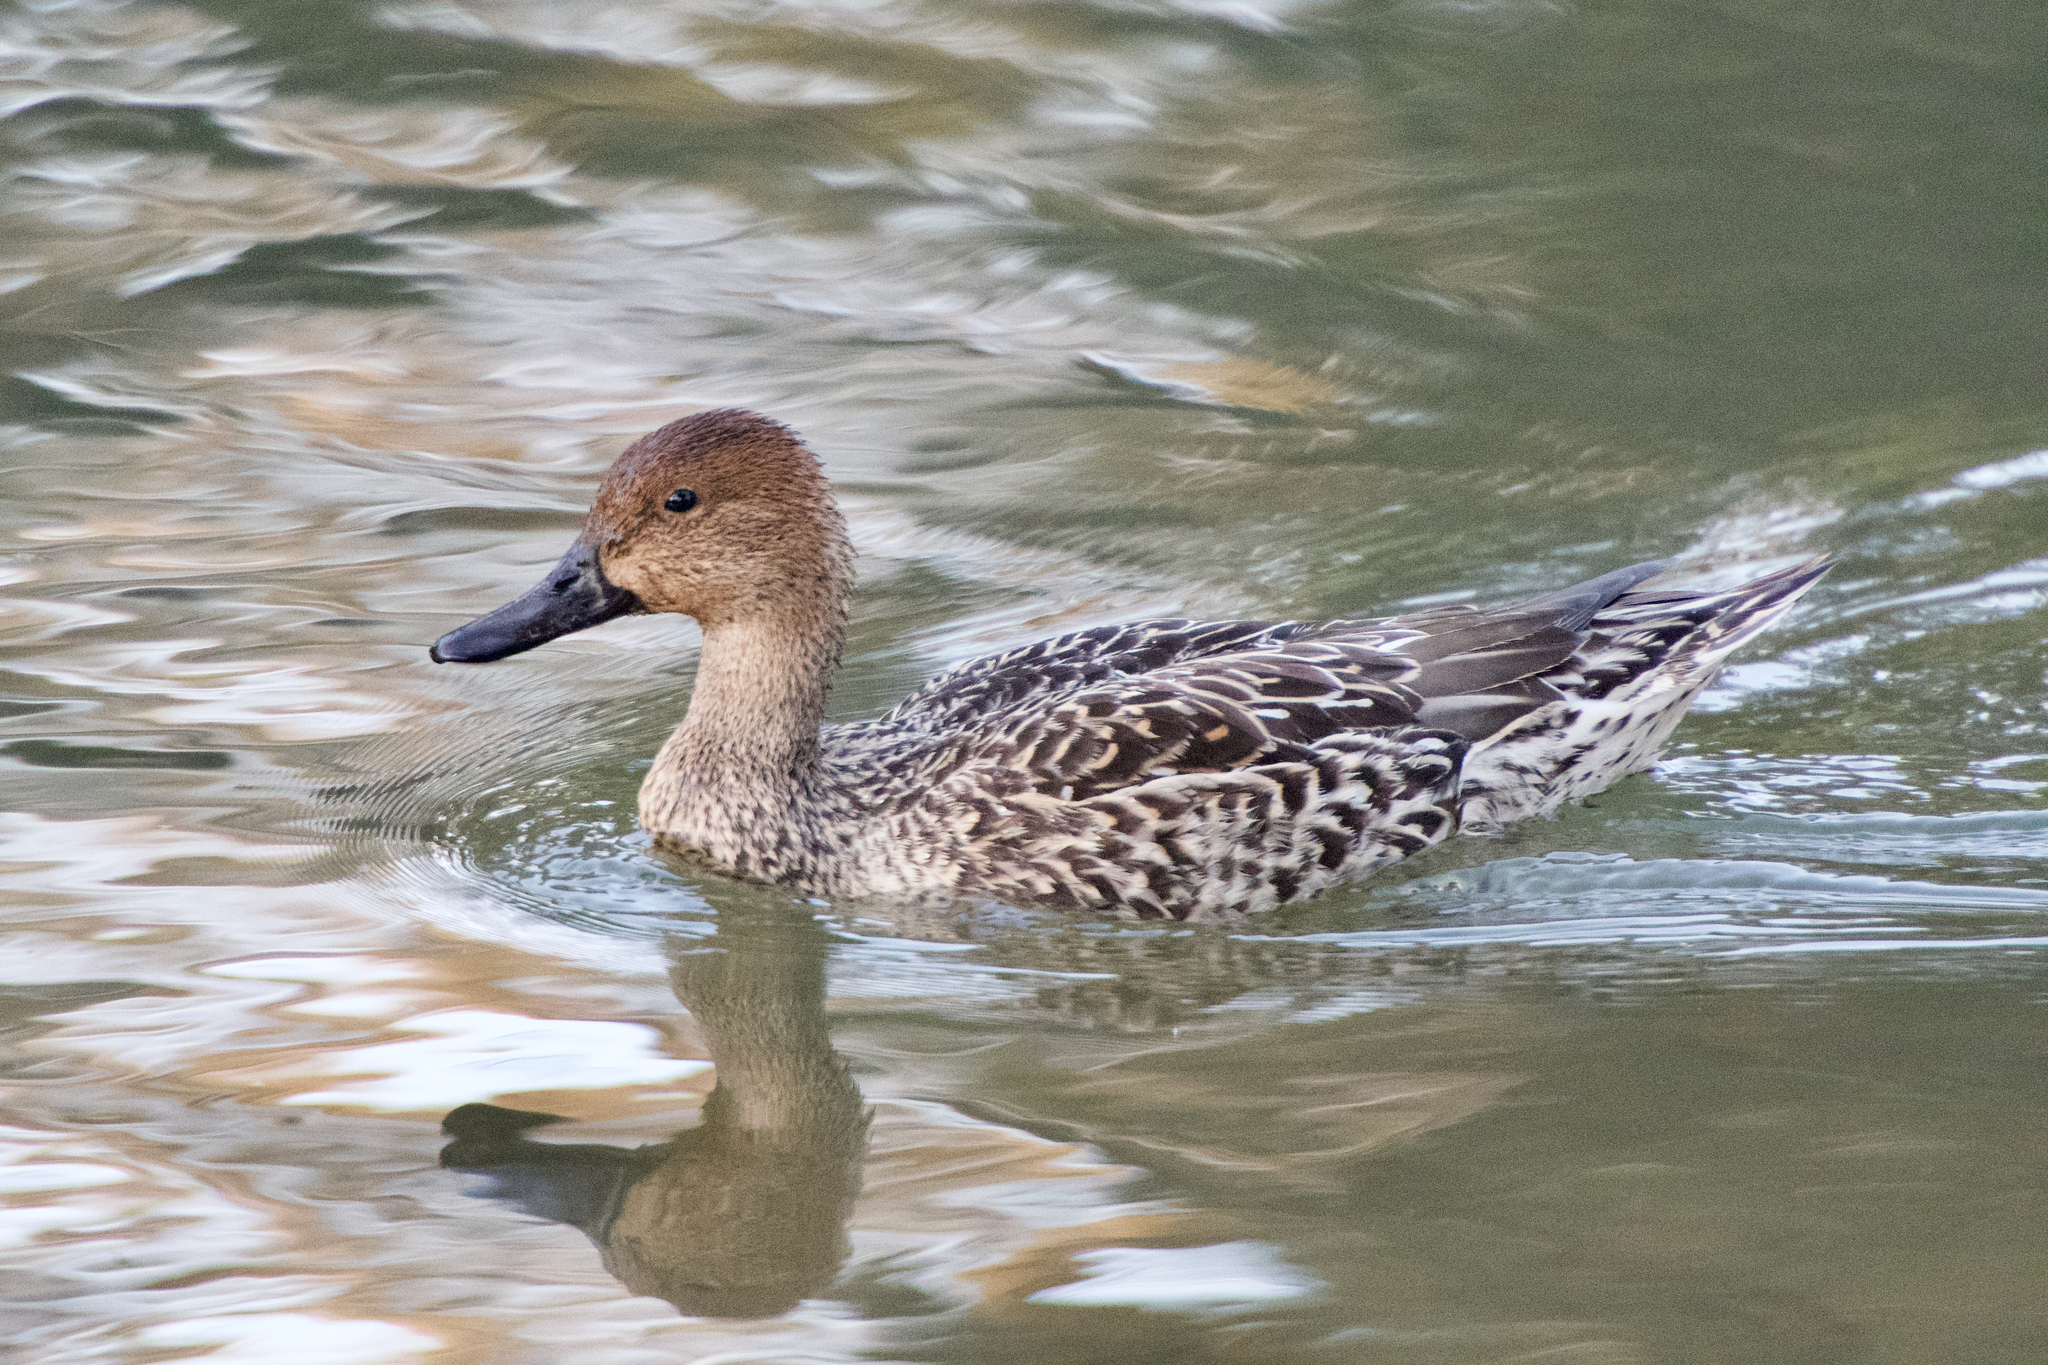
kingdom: Animalia
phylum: Chordata
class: Aves
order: Anseriformes
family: Anatidae
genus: Anas
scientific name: Anas acuta
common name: Northern pintail
